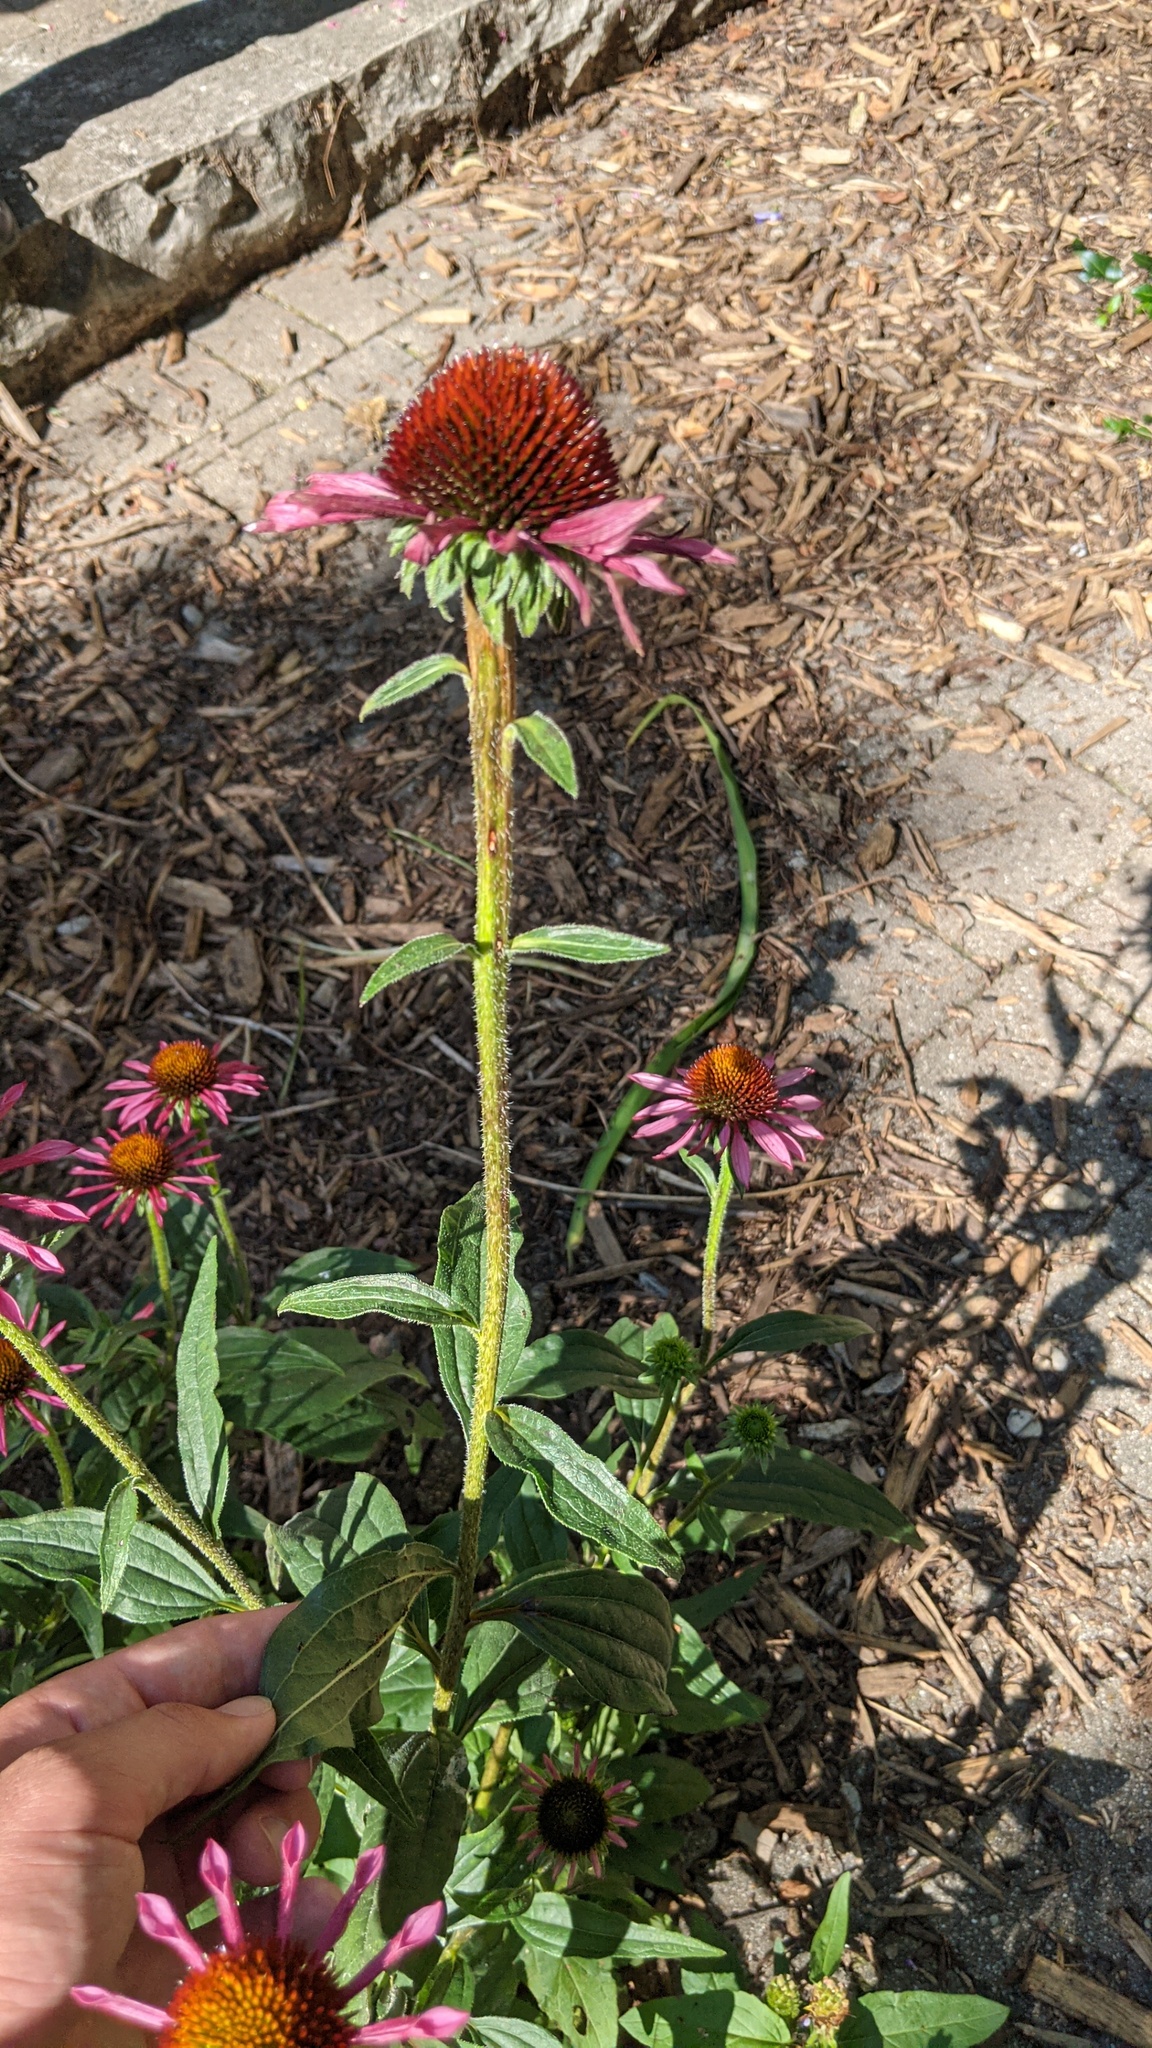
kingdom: Plantae
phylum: Tracheophyta
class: Magnoliopsida
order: Asterales
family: Asteraceae
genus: Echinacea
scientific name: Echinacea purpurea
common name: Broad-leaved purple coneflower
